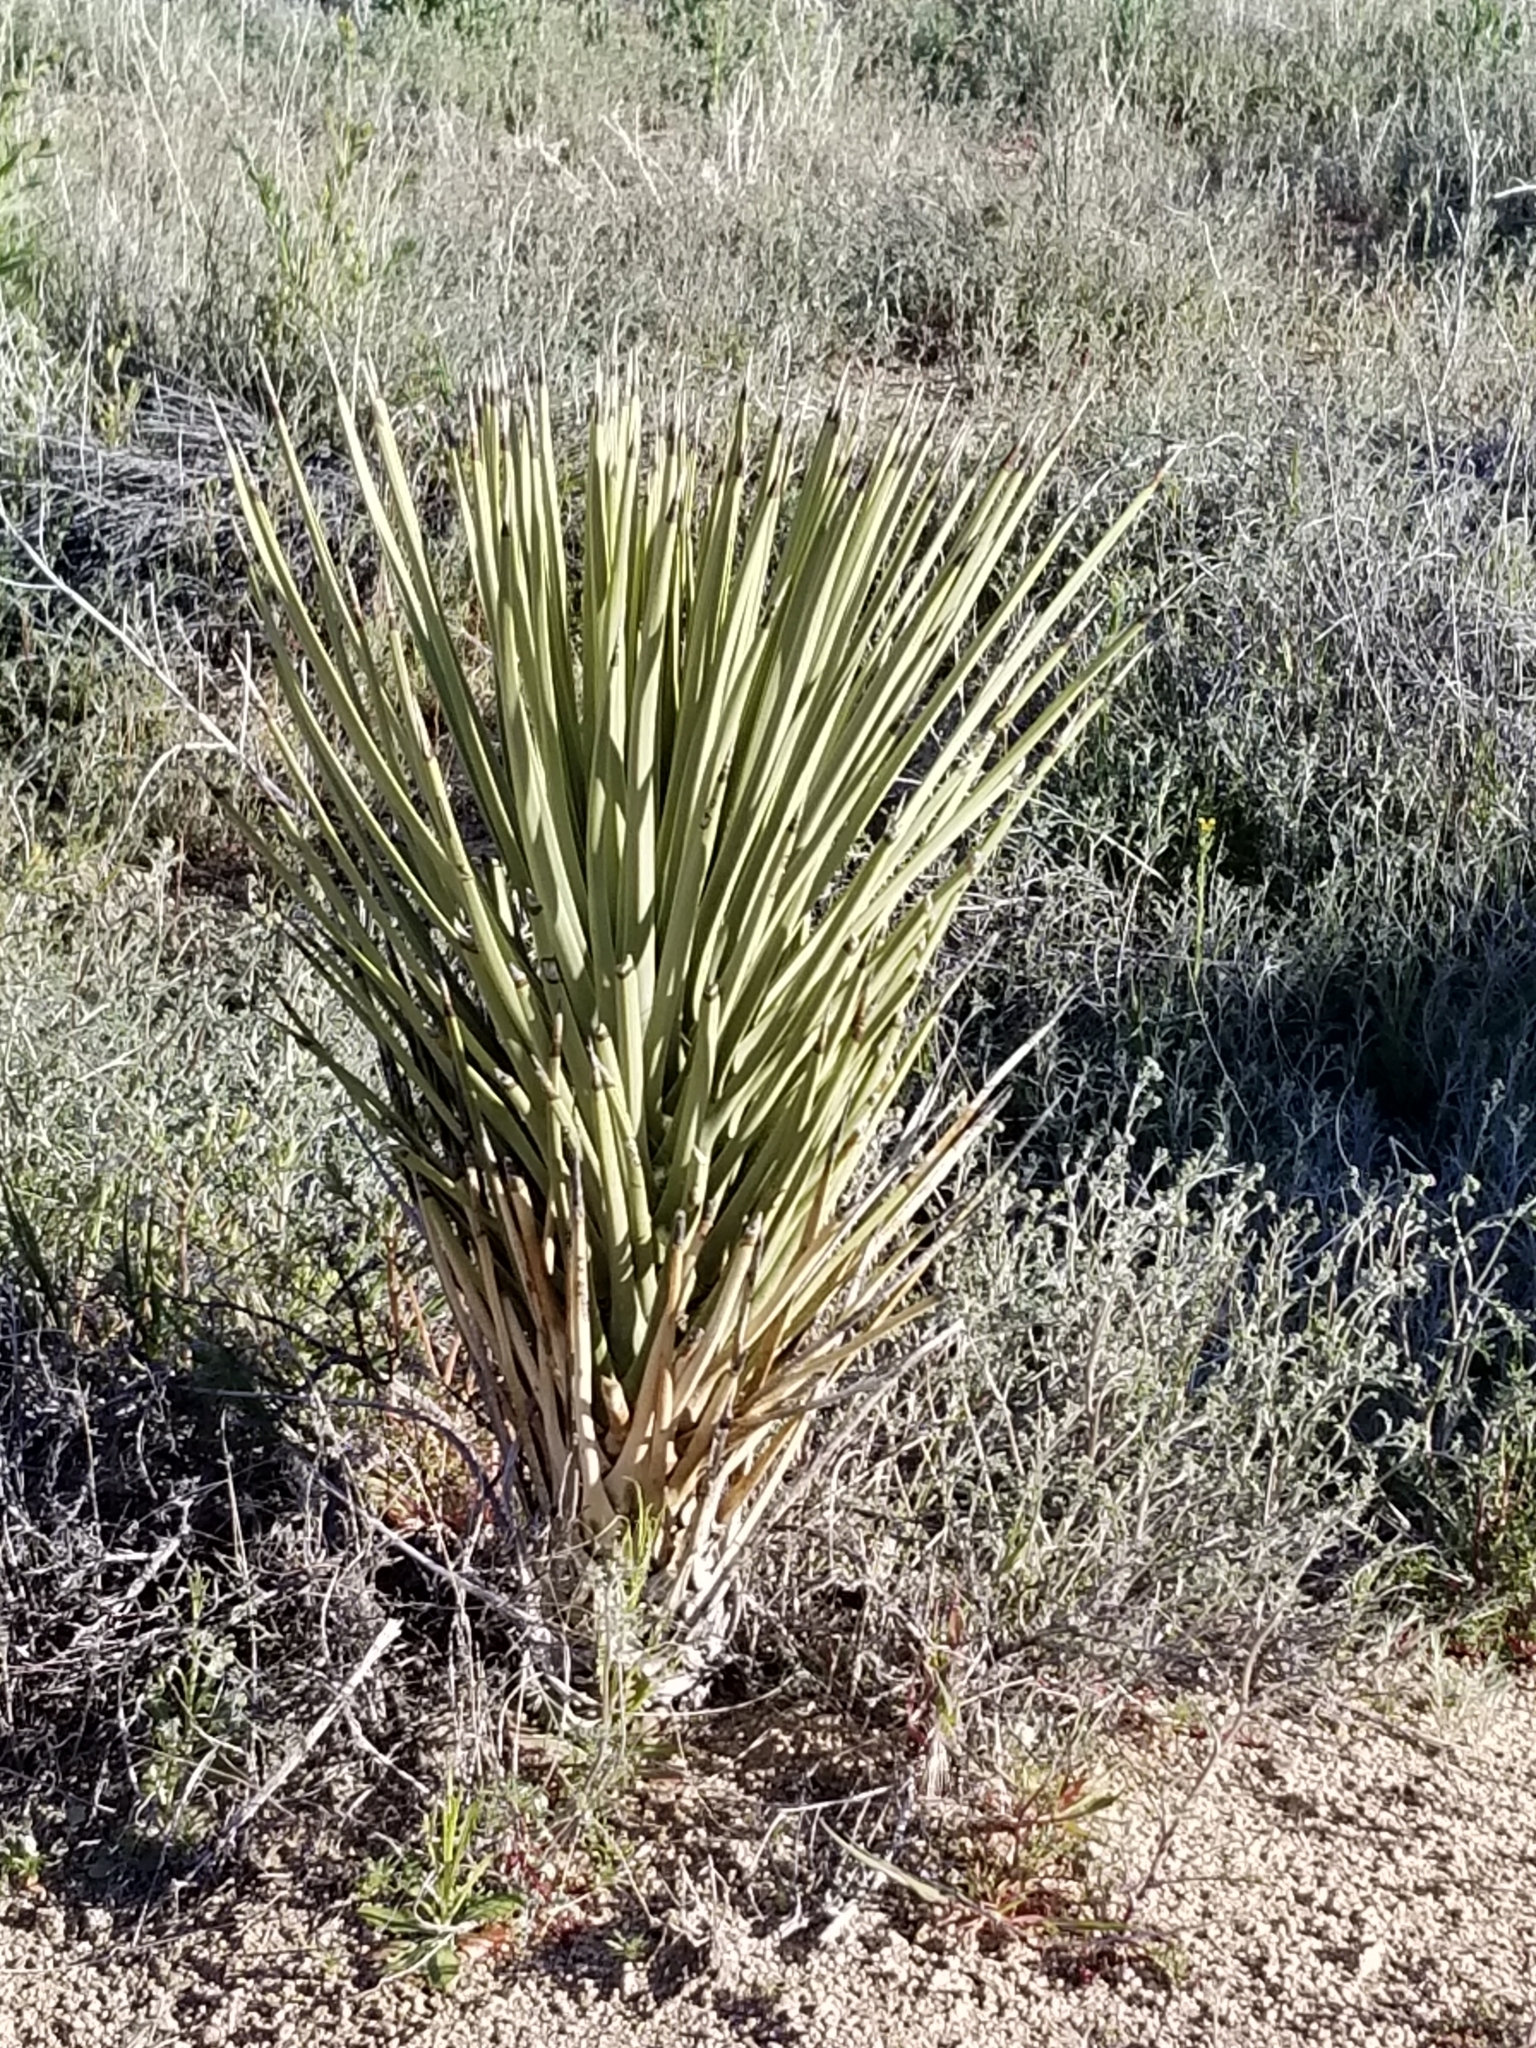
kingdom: Plantae
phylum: Tracheophyta
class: Liliopsida
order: Asparagales
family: Asparagaceae
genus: Yucca
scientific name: Yucca brevifolia
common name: Joshua tree
